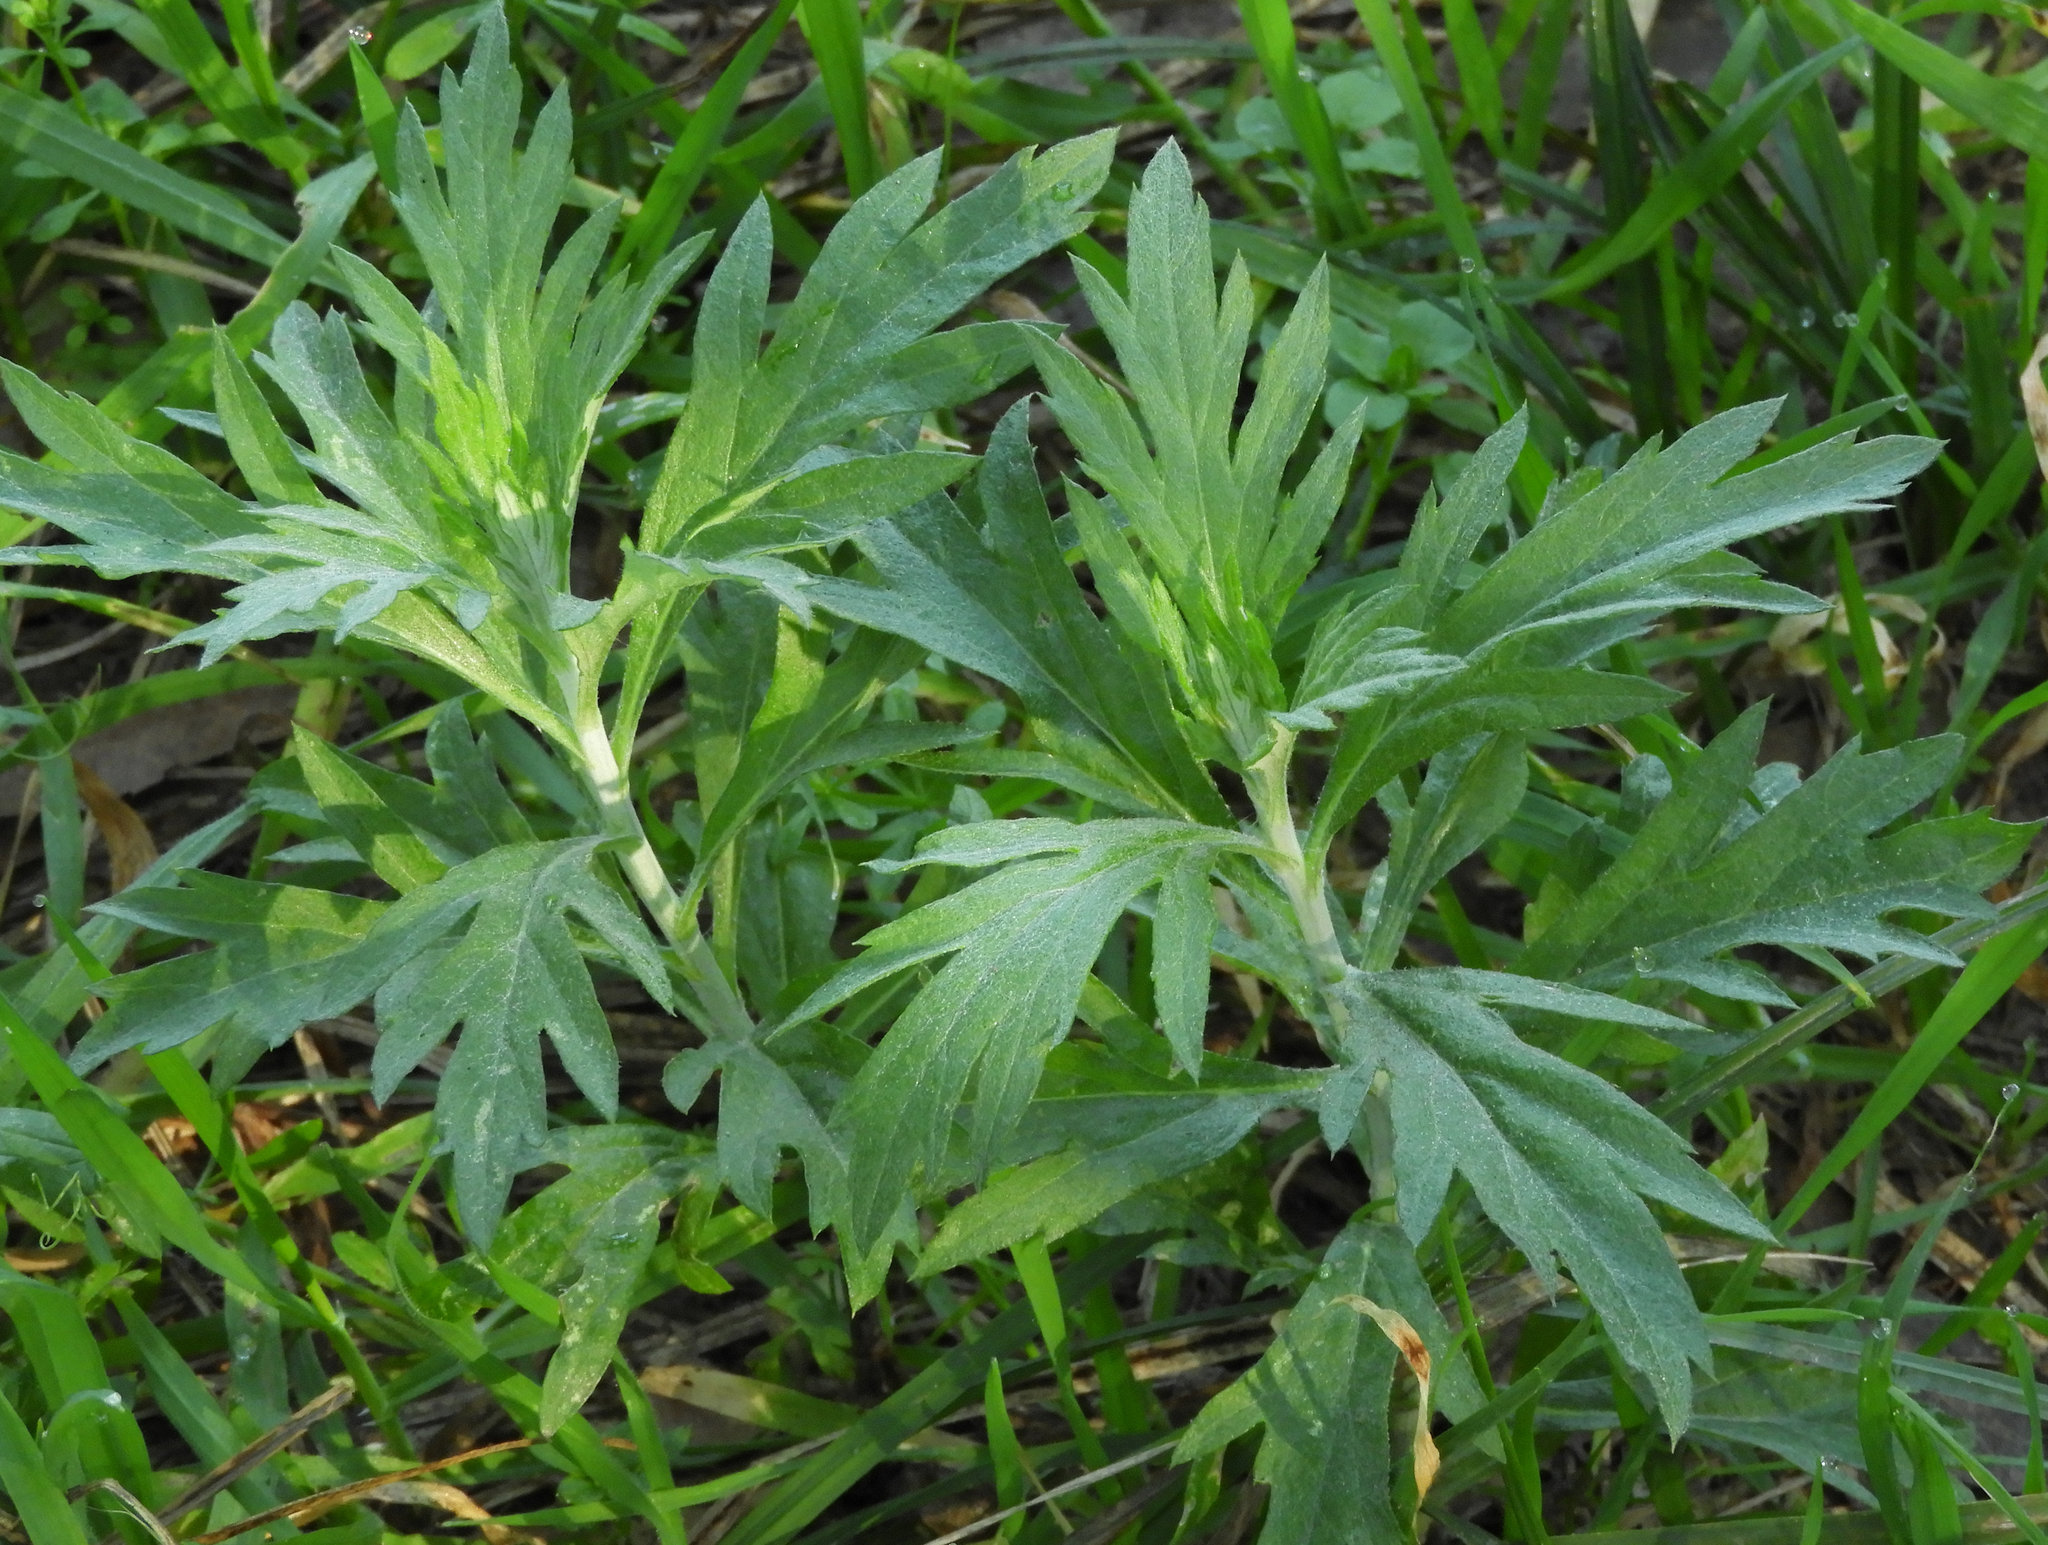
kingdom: Plantae
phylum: Tracheophyta
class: Magnoliopsida
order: Asterales
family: Asteraceae
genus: Artemisia
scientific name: Artemisia douglasiana
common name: Northwest mugwort
